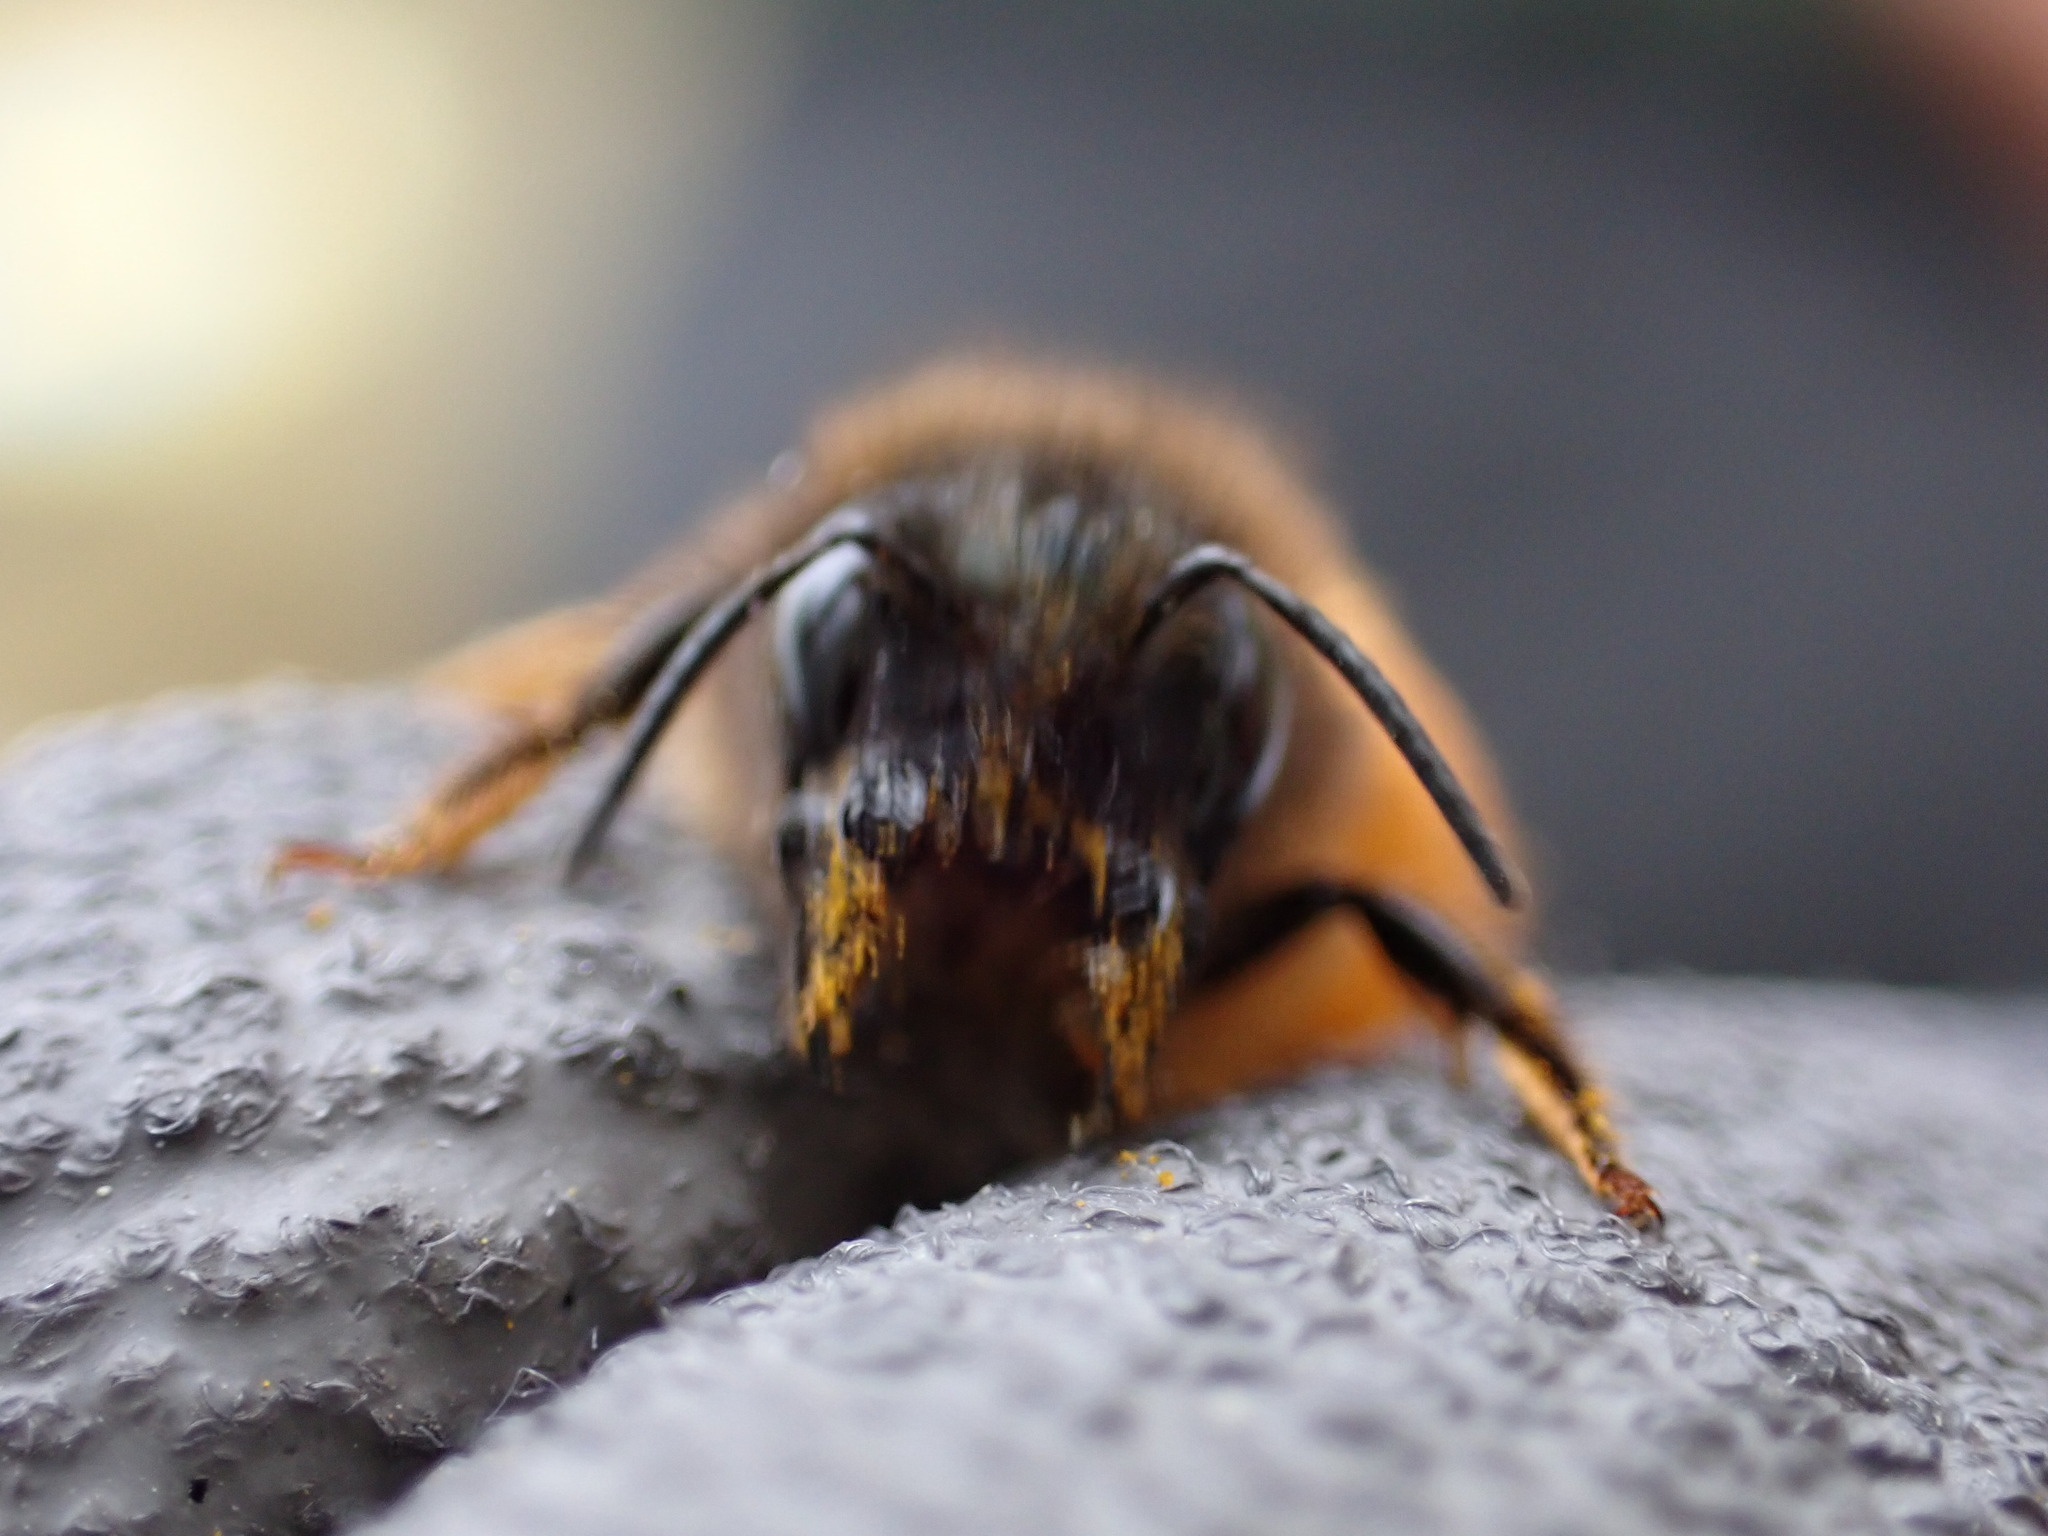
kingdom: Animalia
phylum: Arthropoda
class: Insecta
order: Hymenoptera
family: Megachilidae
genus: Osmia
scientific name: Osmia tricornis
